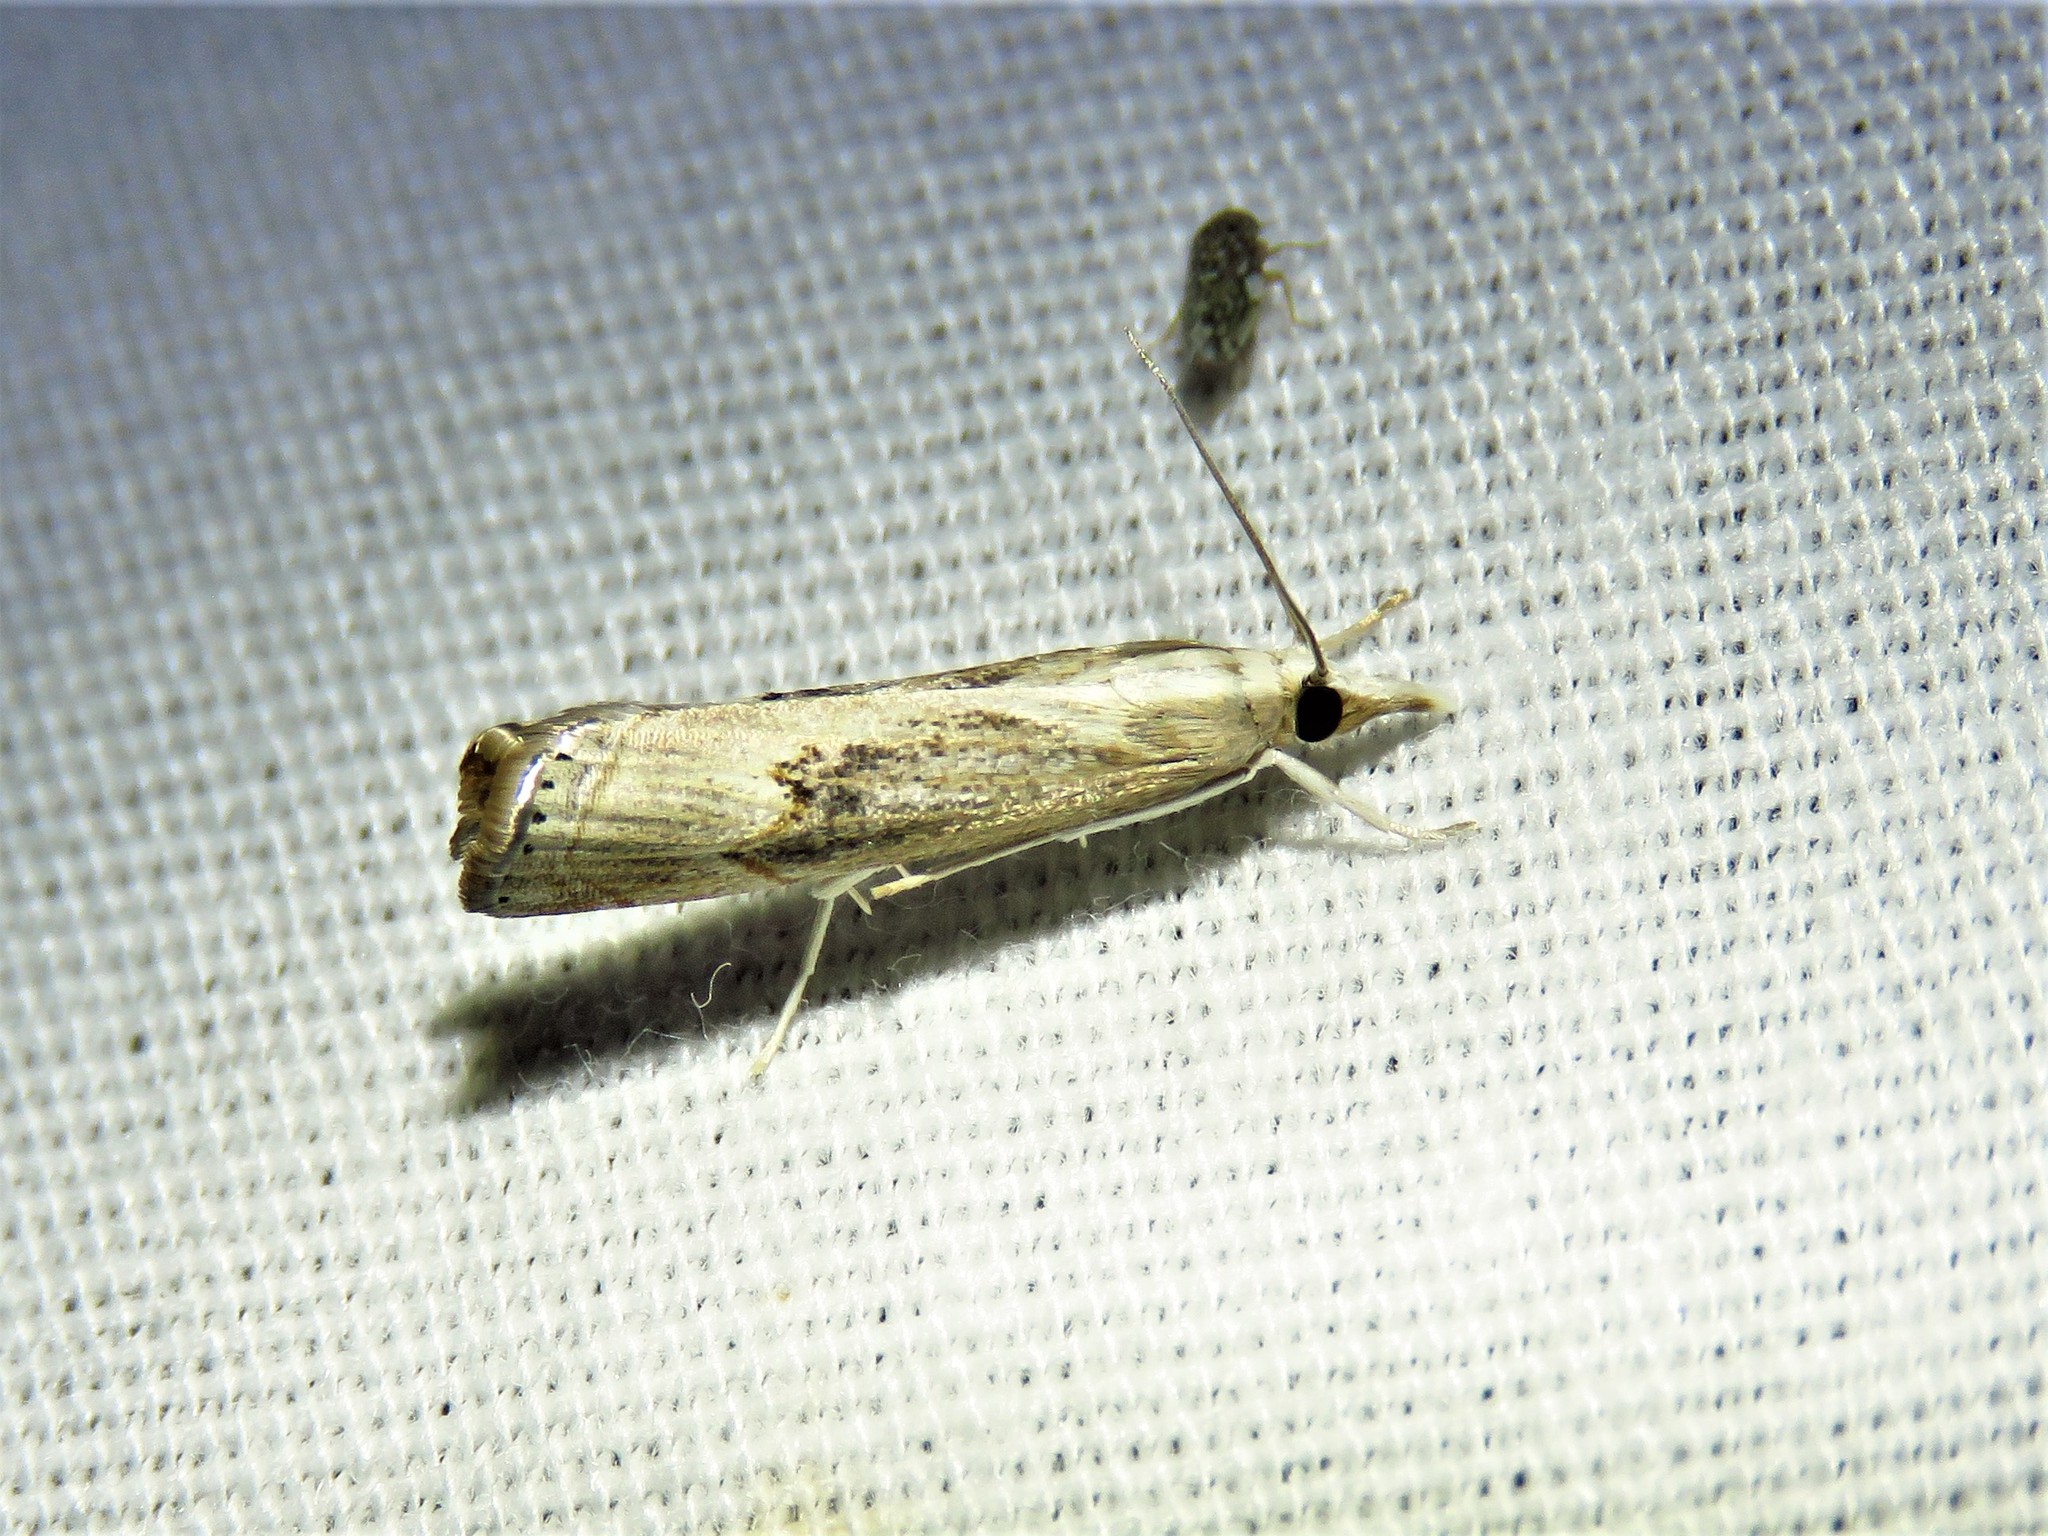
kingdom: Animalia
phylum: Arthropoda
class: Insecta
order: Lepidoptera
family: Crambidae
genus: Parapediasia
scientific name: Parapediasia teterellus
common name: Bluegrass webworm moth
